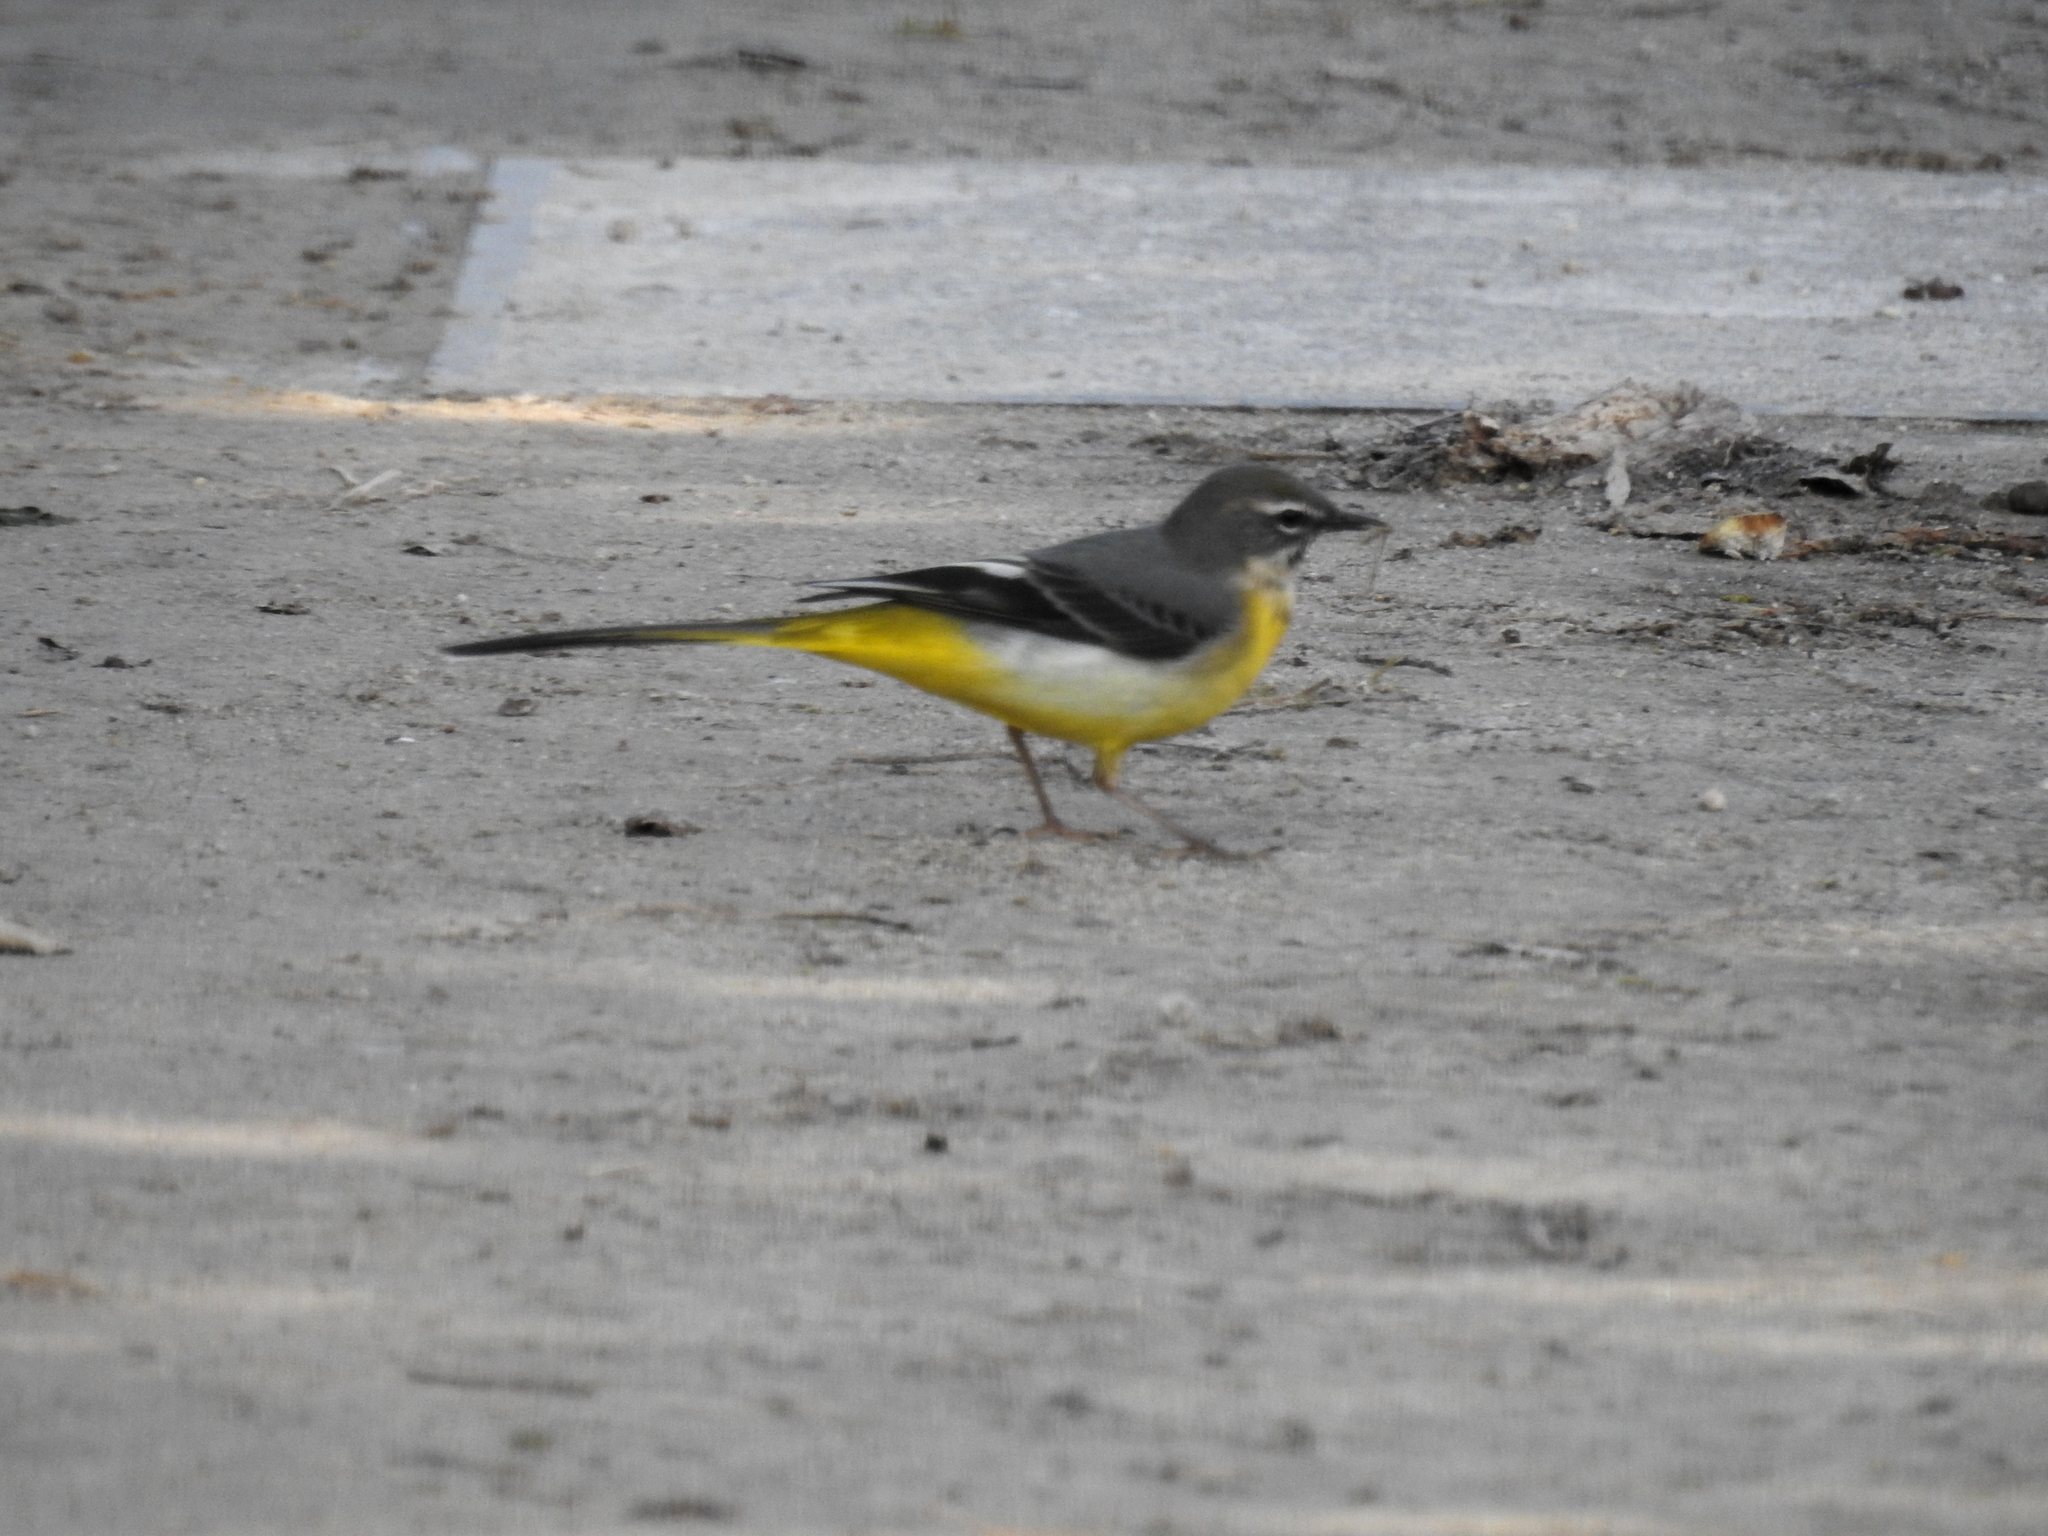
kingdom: Animalia
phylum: Chordata
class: Aves
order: Passeriformes
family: Motacillidae
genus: Motacilla
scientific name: Motacilla cinerea
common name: Grey wagtail
